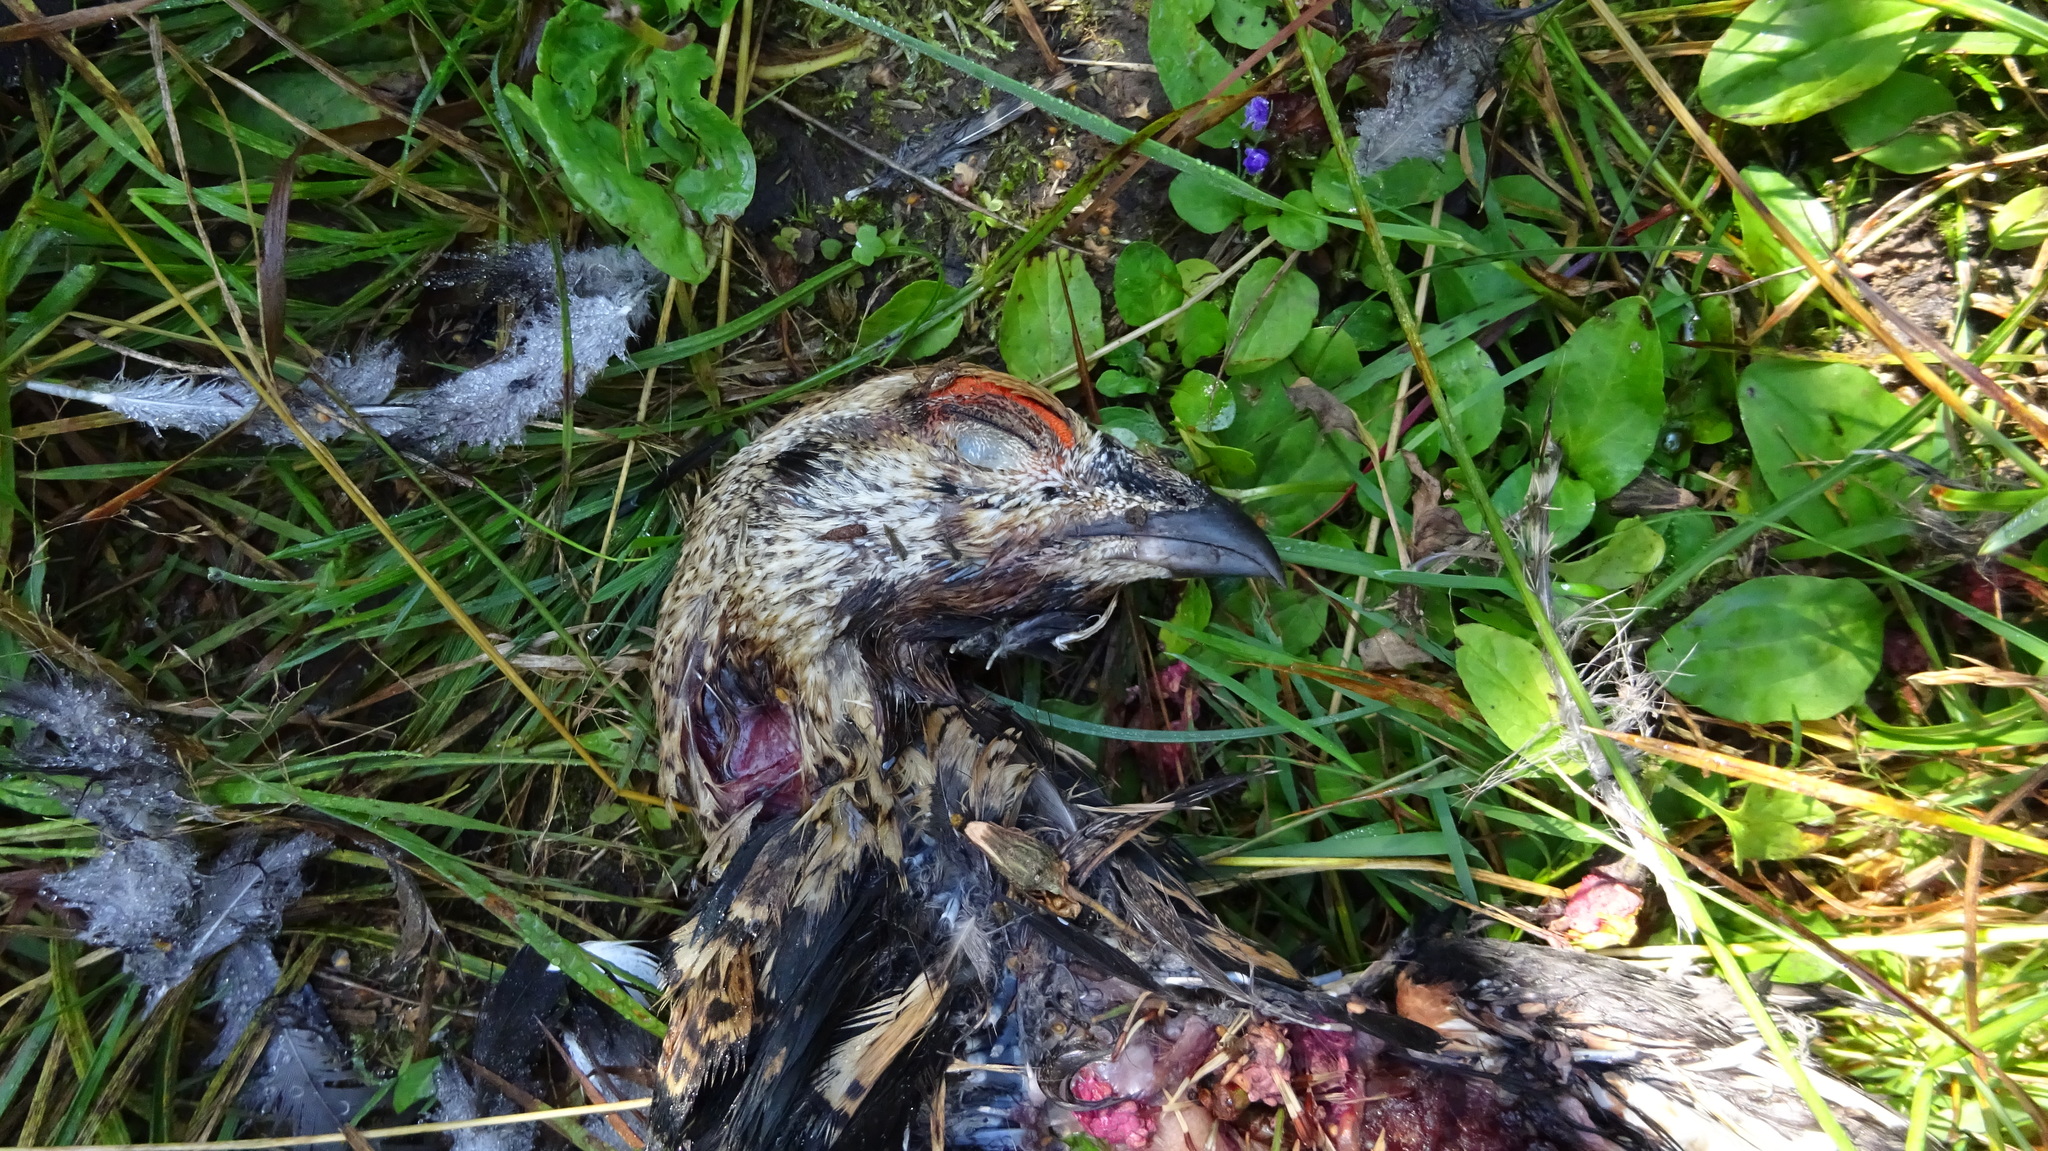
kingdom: Animalia
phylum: Chordata
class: Aves
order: Galliformes
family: Phasianidae
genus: Lyrurus
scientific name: Lyrurus tetrix
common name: Black grouse
